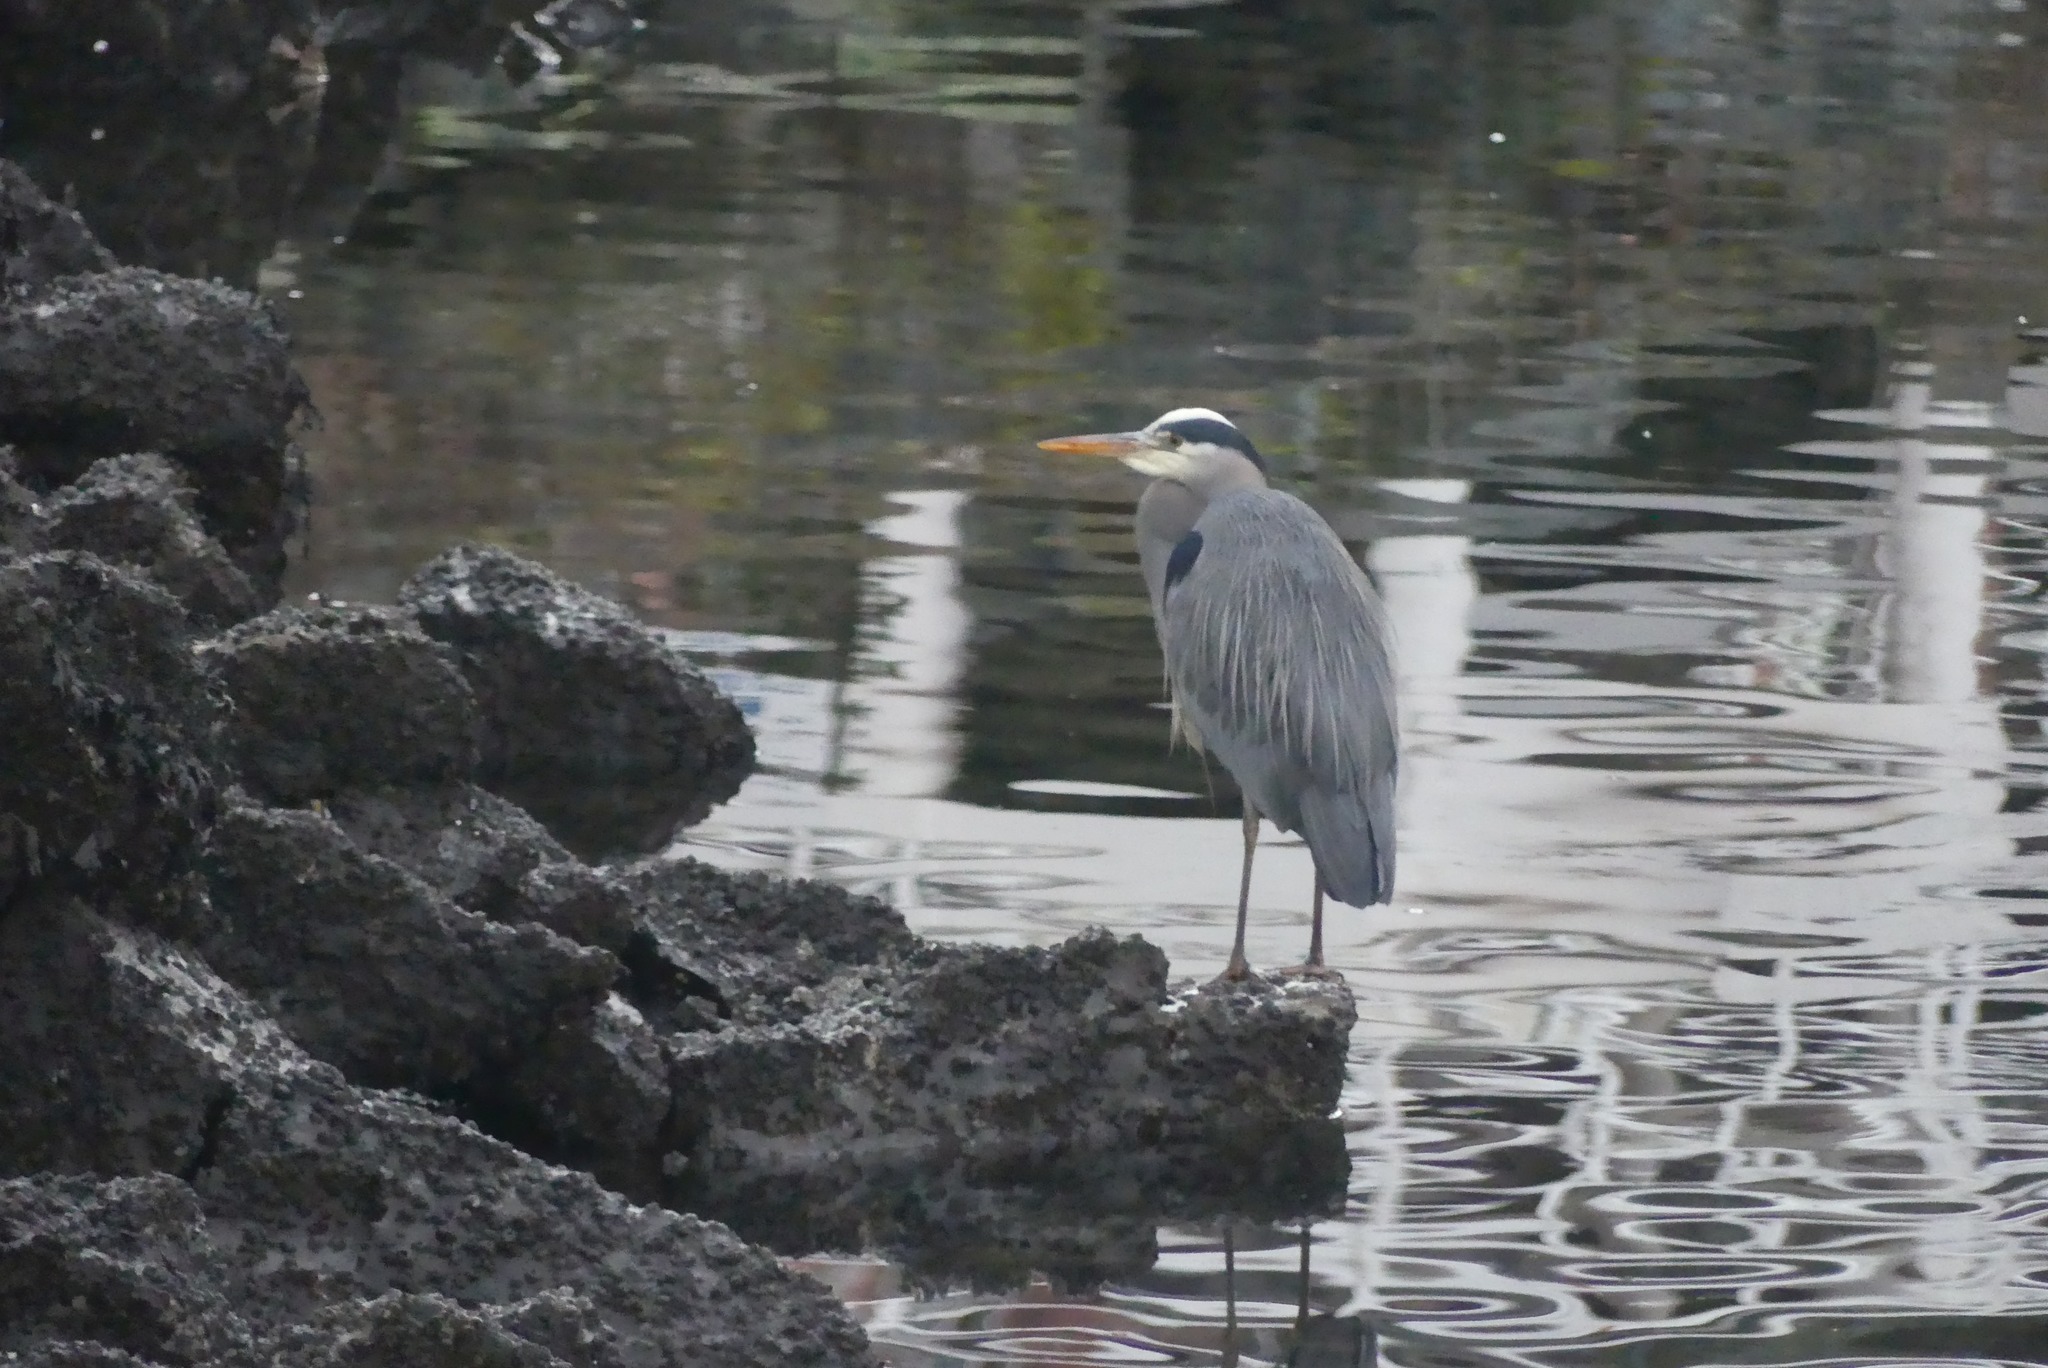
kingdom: Animalia
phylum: Chordata
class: Aves
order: Pelecaniformes
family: Ardeidae
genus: Ardea
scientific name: Ardea herodias
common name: Great blue heron
